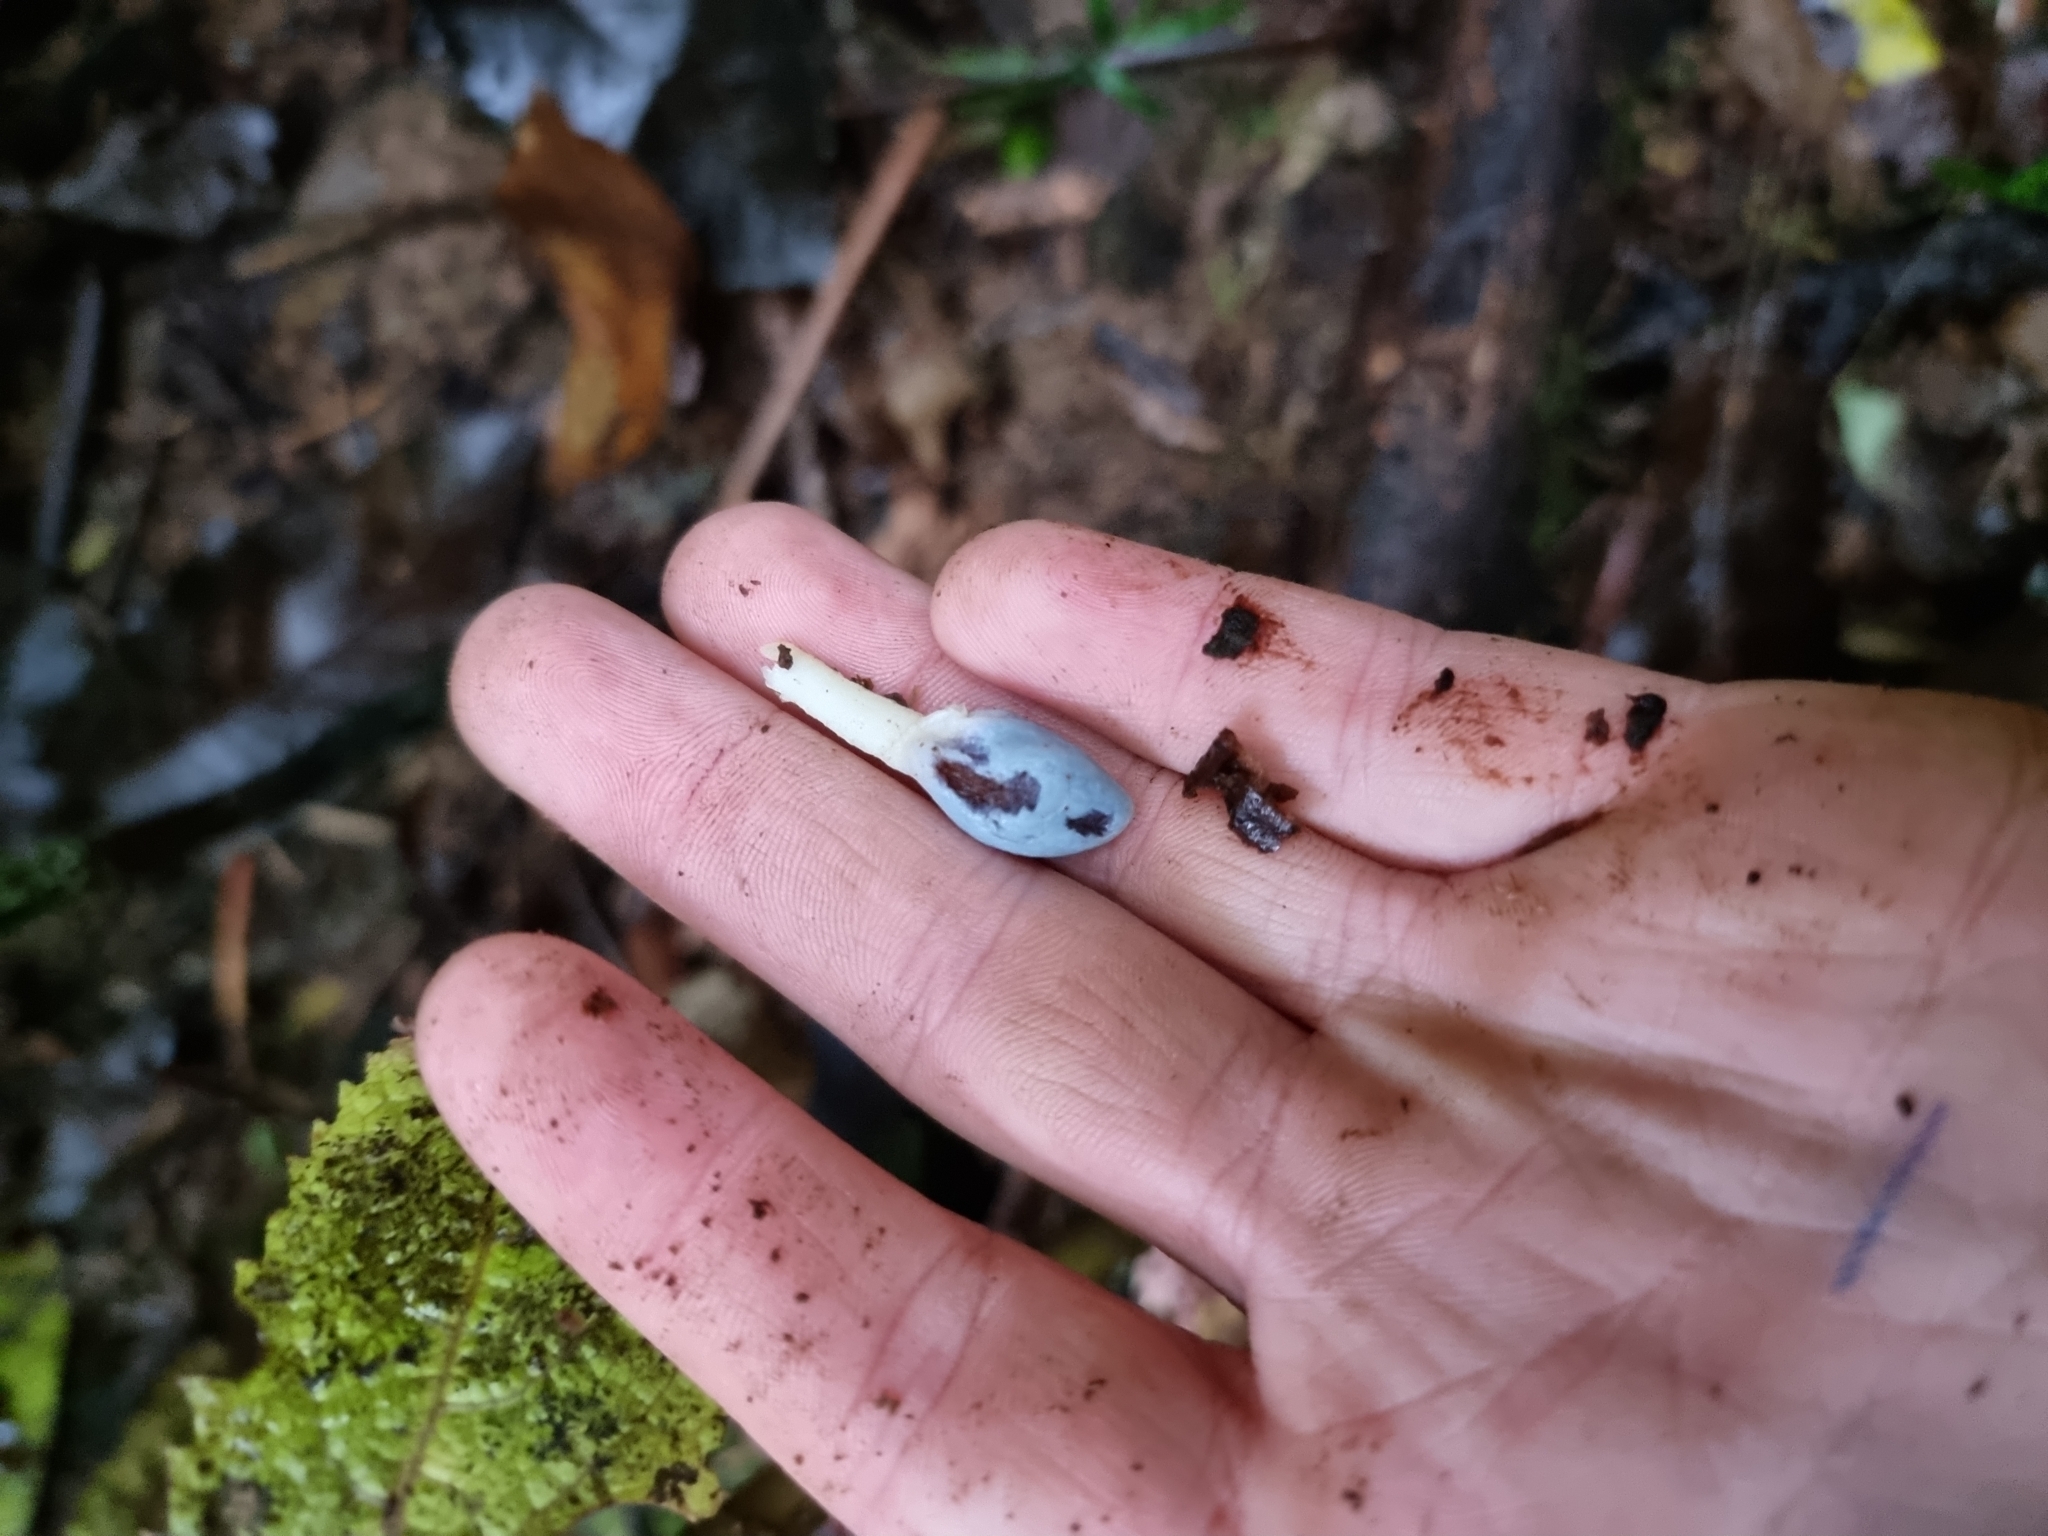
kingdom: Fungi
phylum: Basidiomycota
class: Agaricomycetes
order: Agaricales
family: Agaricaceae
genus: Clavogaster
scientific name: Clavogaster virescens
